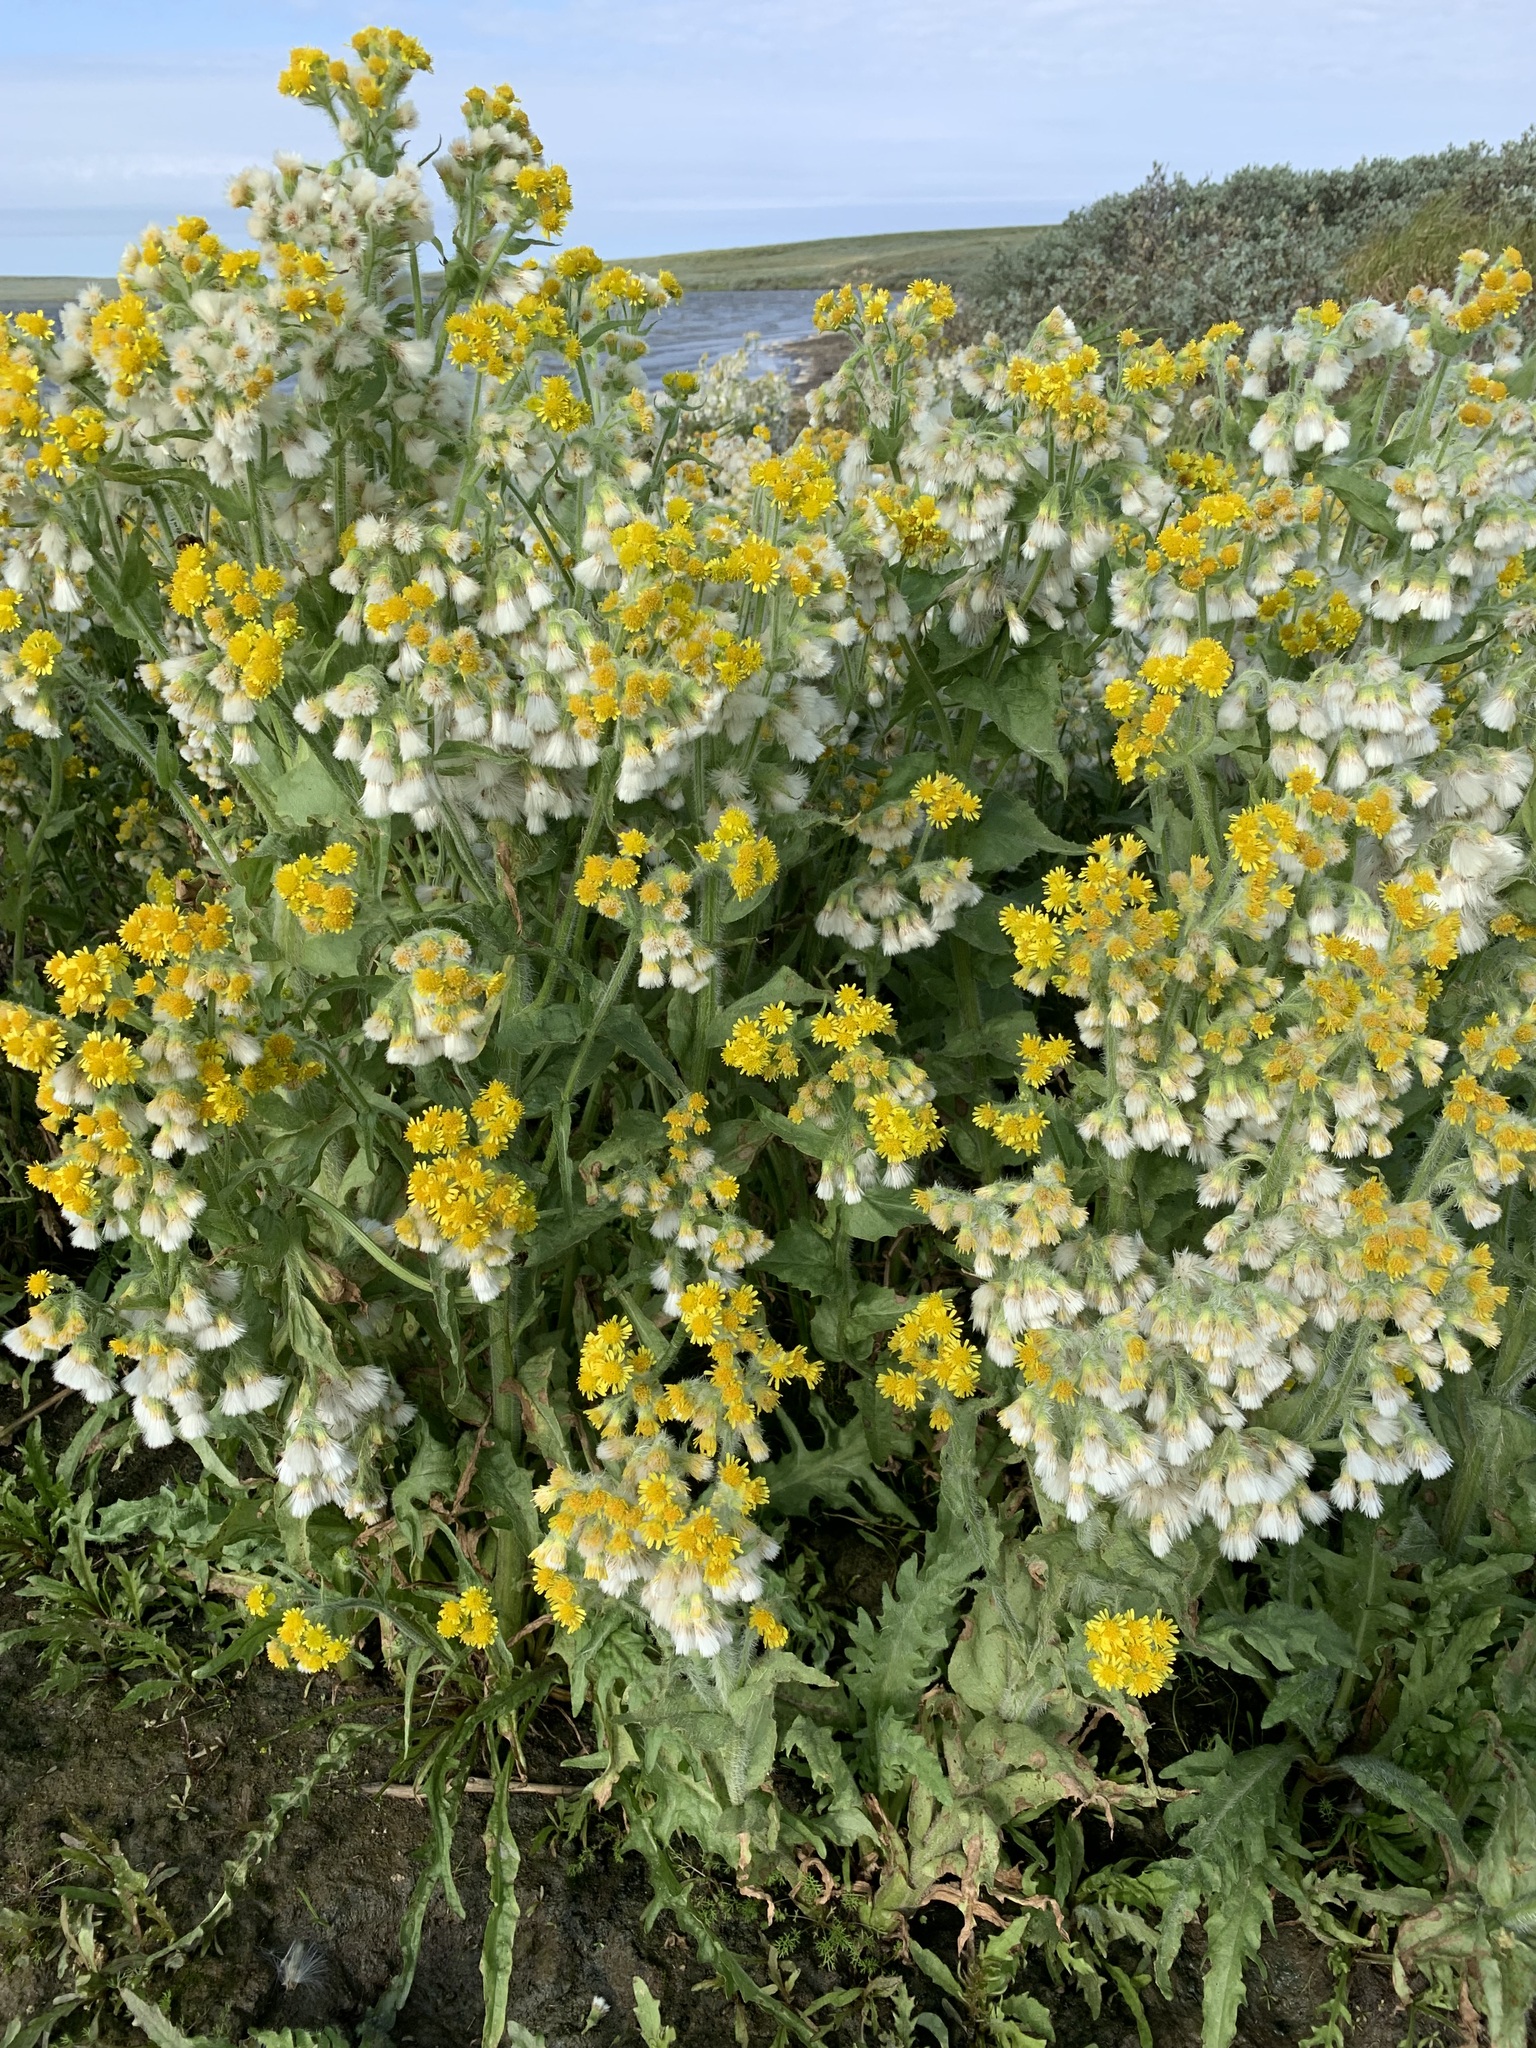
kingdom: Plantae
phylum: Tracheophyta
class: Magnoliopsida
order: Asterales
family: Asteraceae
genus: Tephroseris
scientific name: Tephroseris palustris
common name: Marsh fleawort
